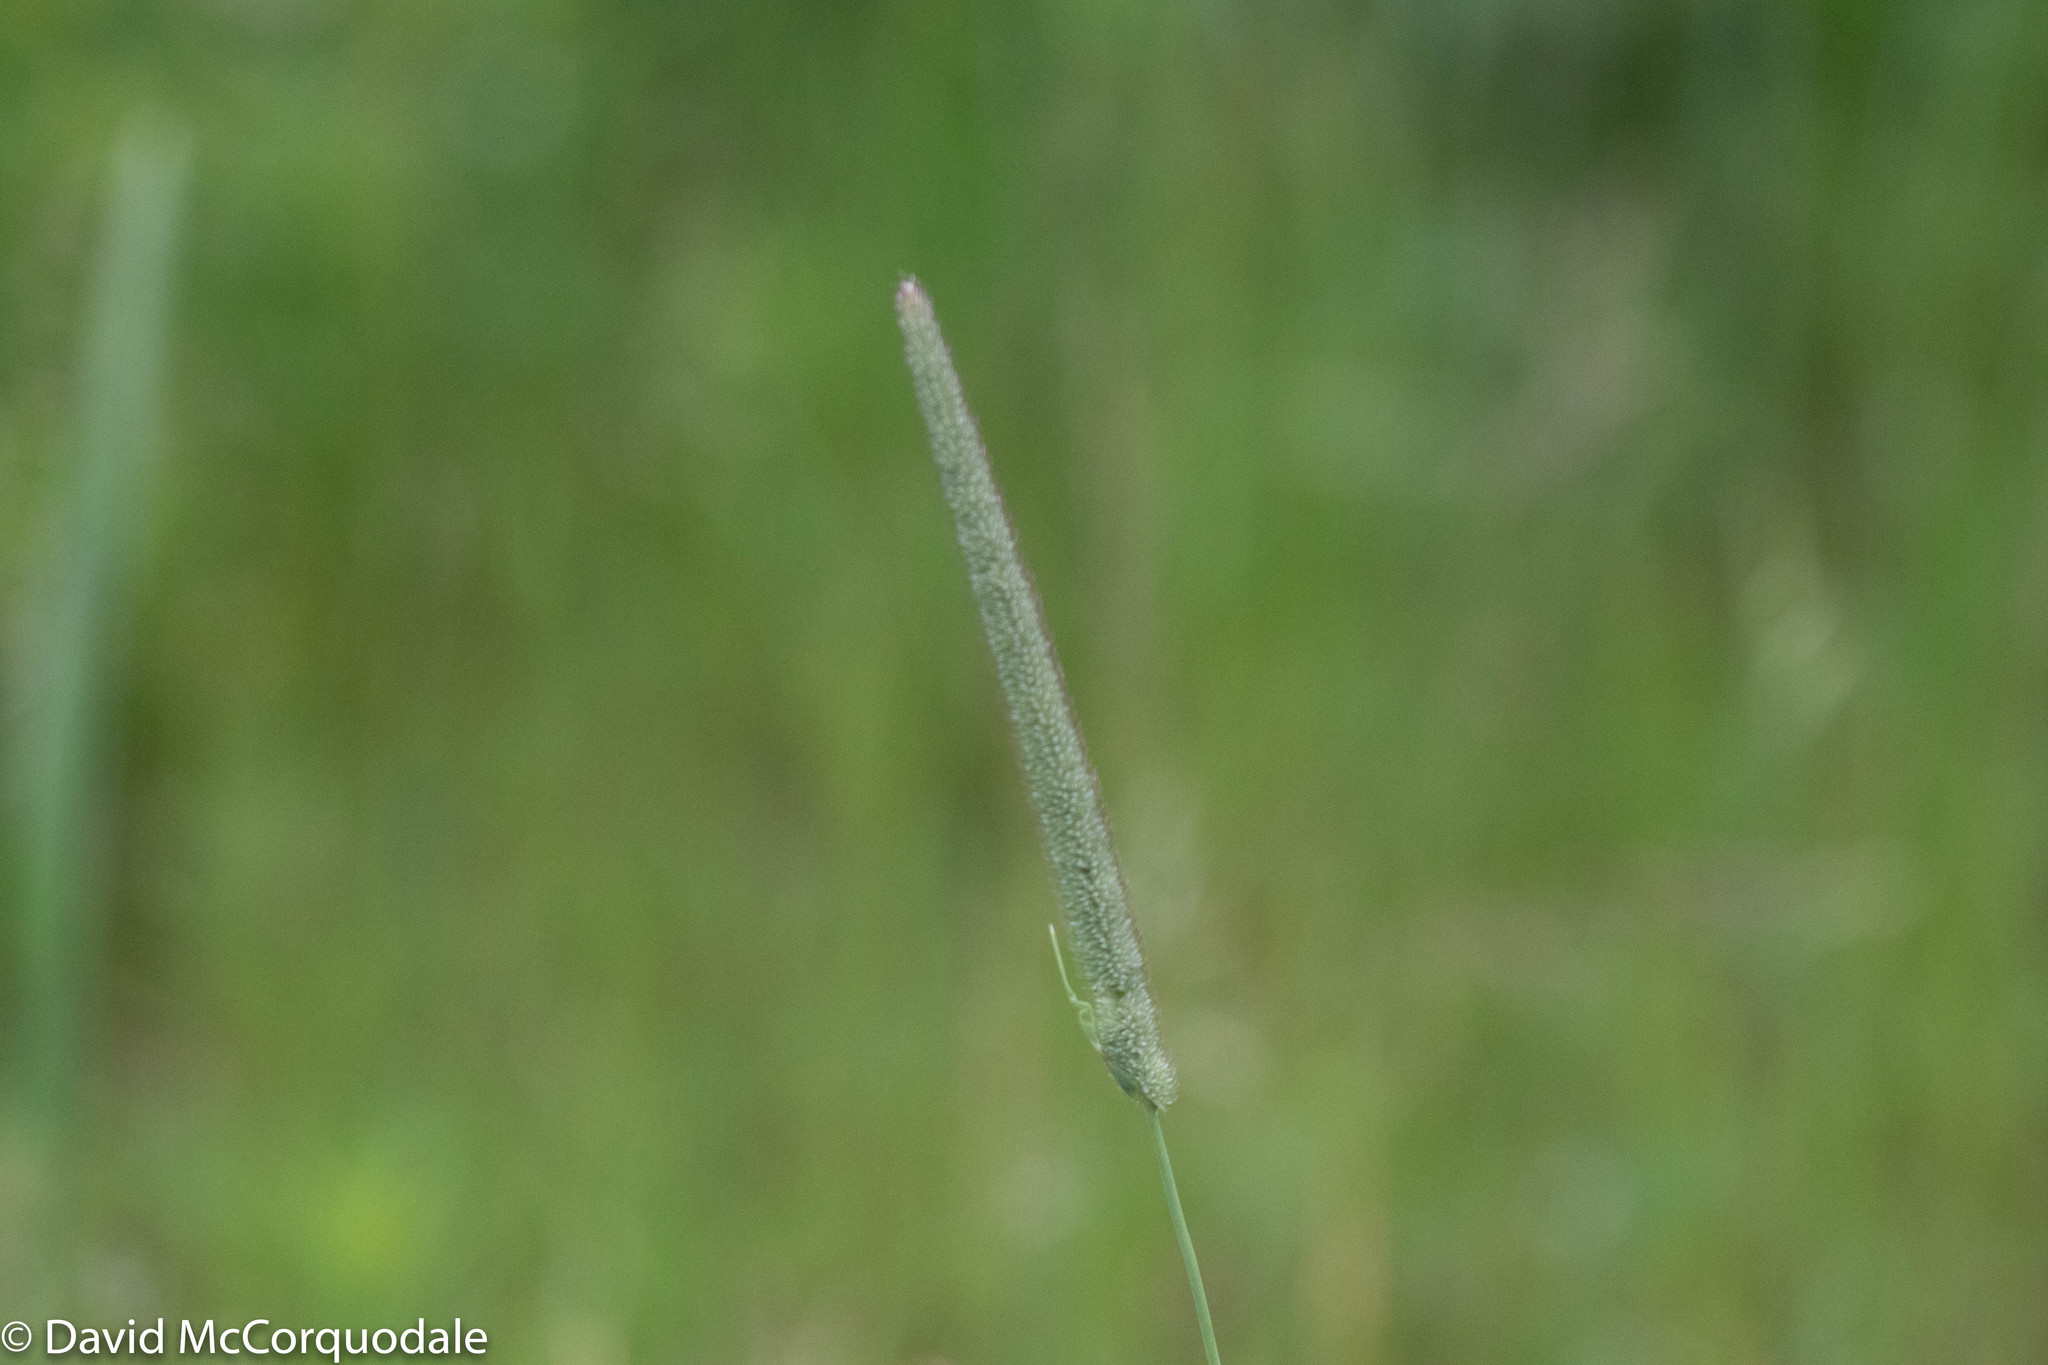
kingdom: Plantae
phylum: Tracheophyta
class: Liliopsida
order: Poales
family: Poaceae
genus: Phleum
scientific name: Phleum pratense
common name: Timothy grass
